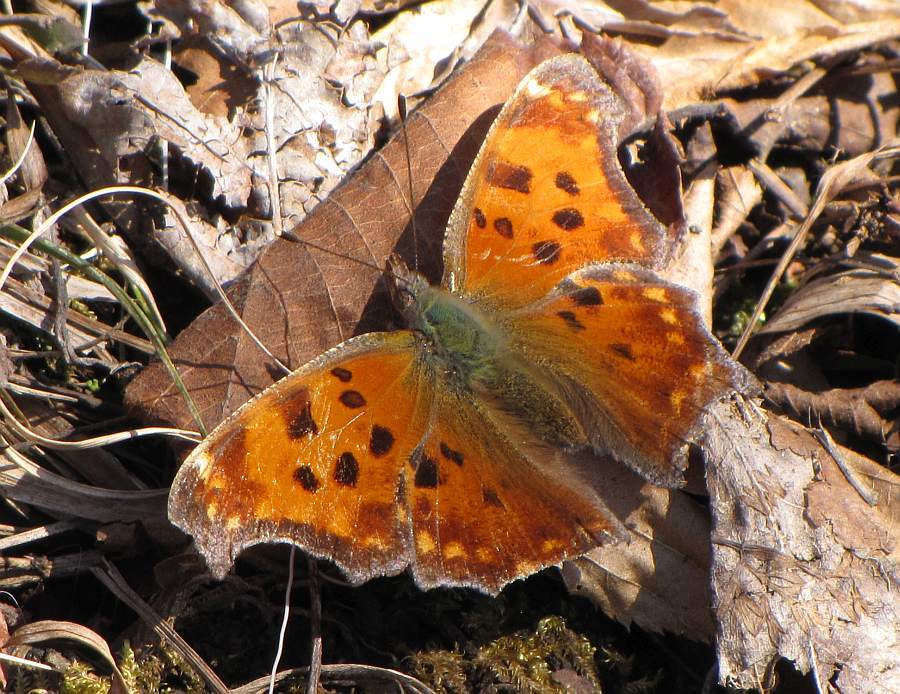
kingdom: Animalia
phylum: Arthropoda
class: Insecta
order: Lepidoptera
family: Nymphalidae
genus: Polygonia
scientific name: Polygonia comma
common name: Eastern comma
